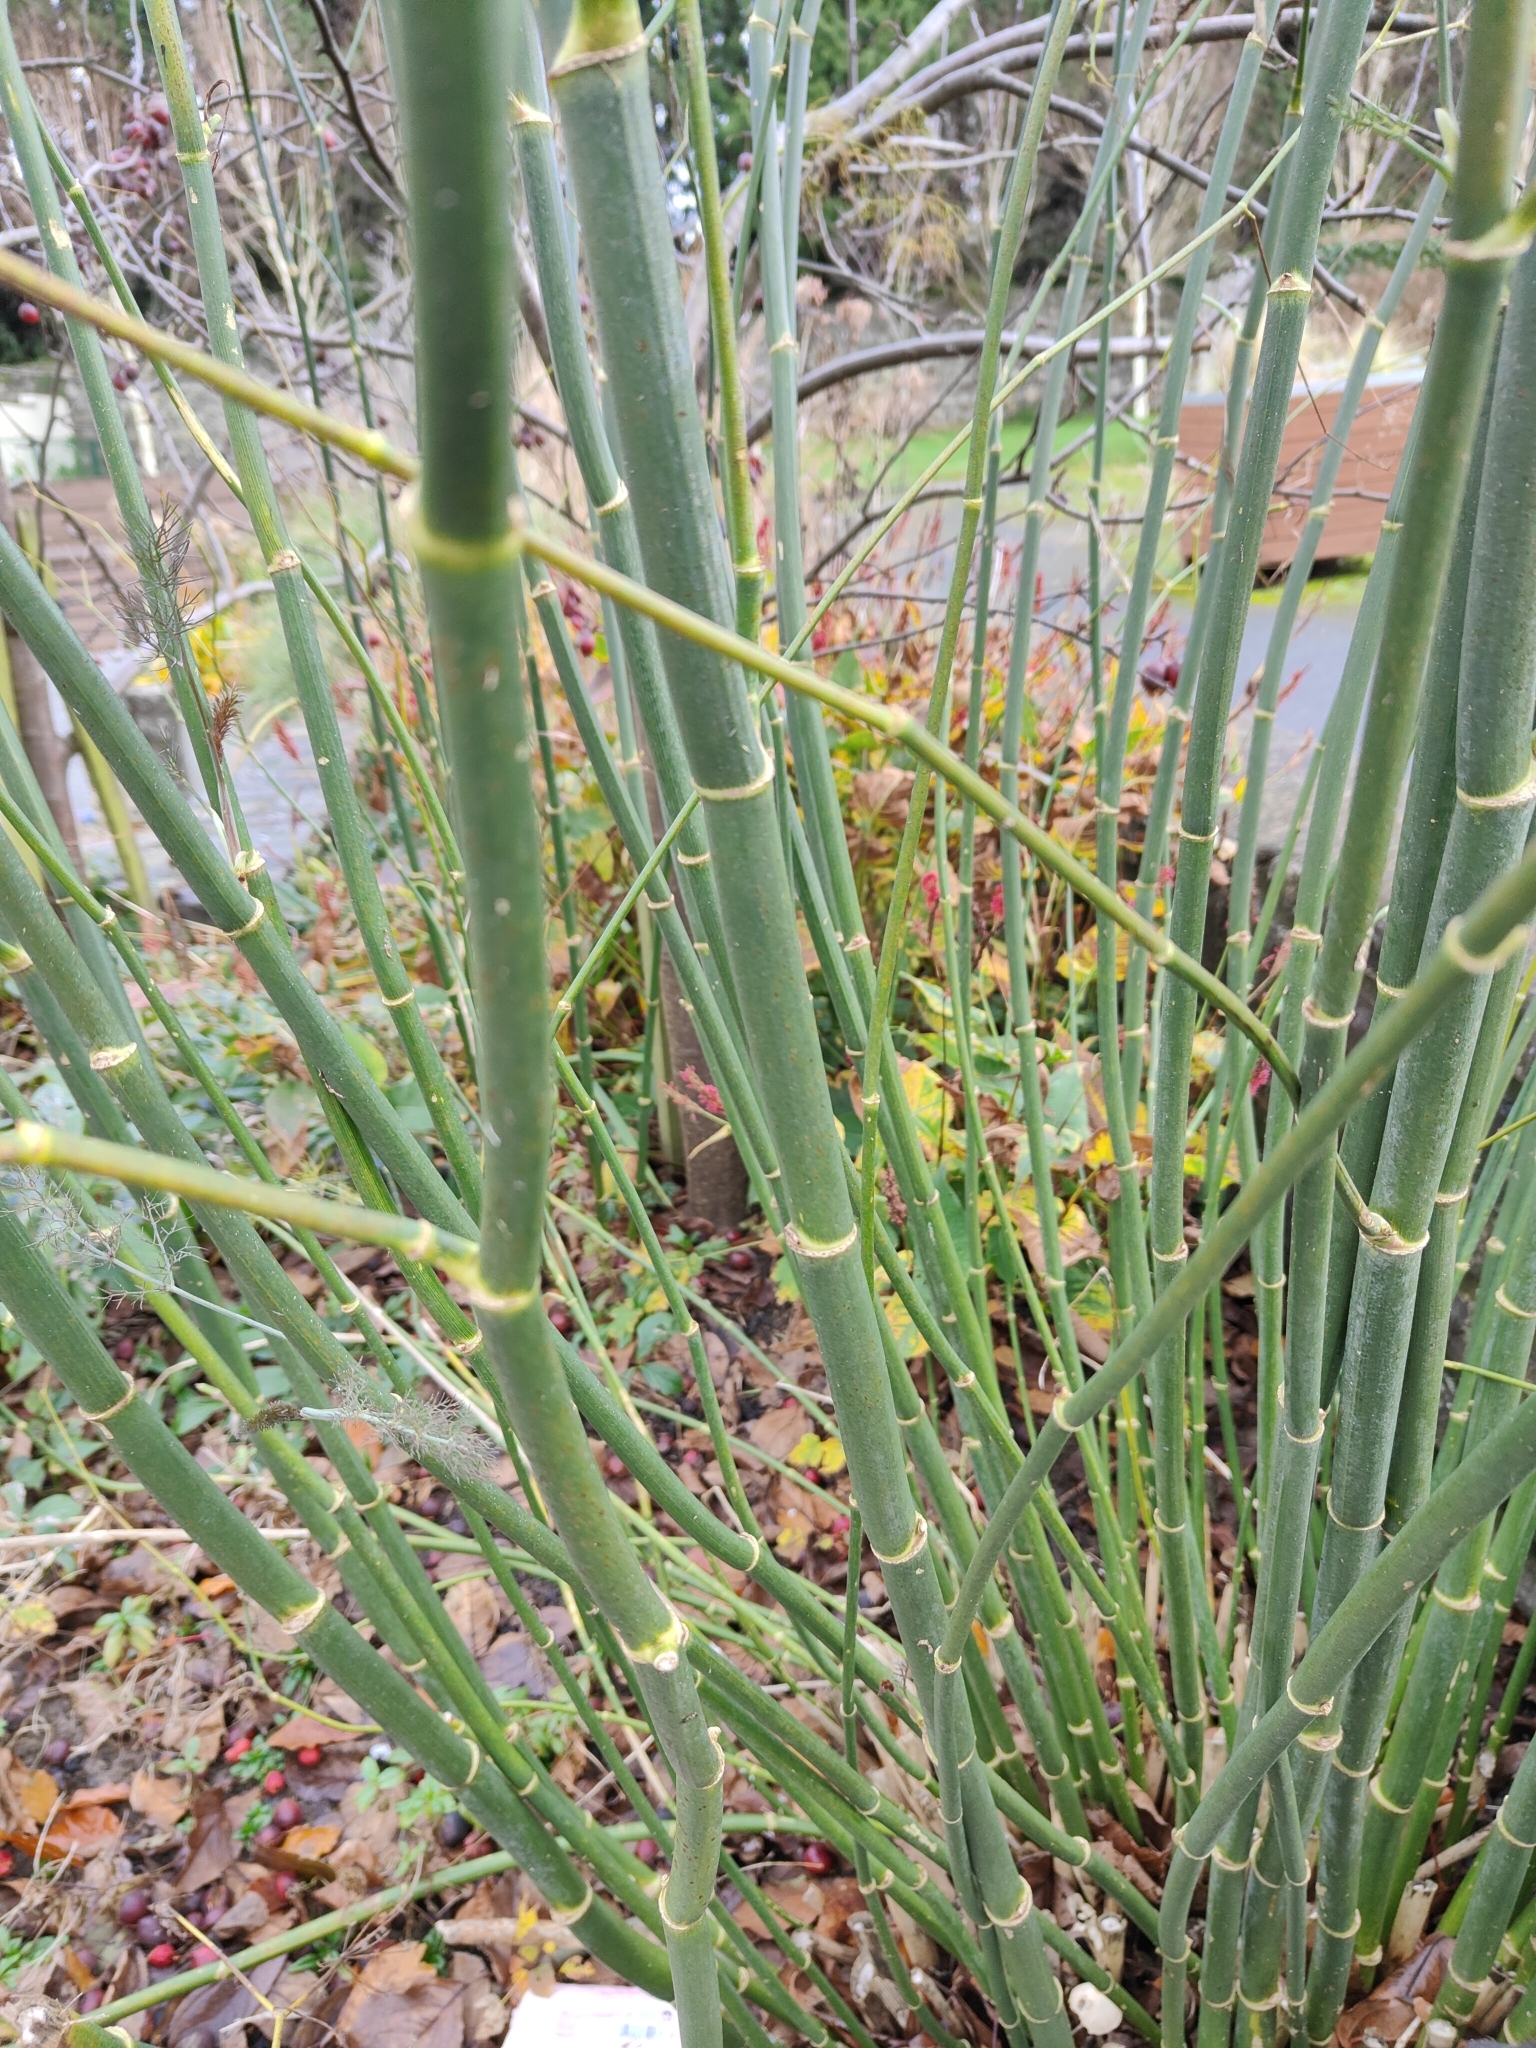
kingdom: Plantae
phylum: Tracheophyta
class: Magnoliopsida
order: Apiales
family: Apiaceae
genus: Foeniculum
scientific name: Foeniculum vulgare
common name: Fennel
